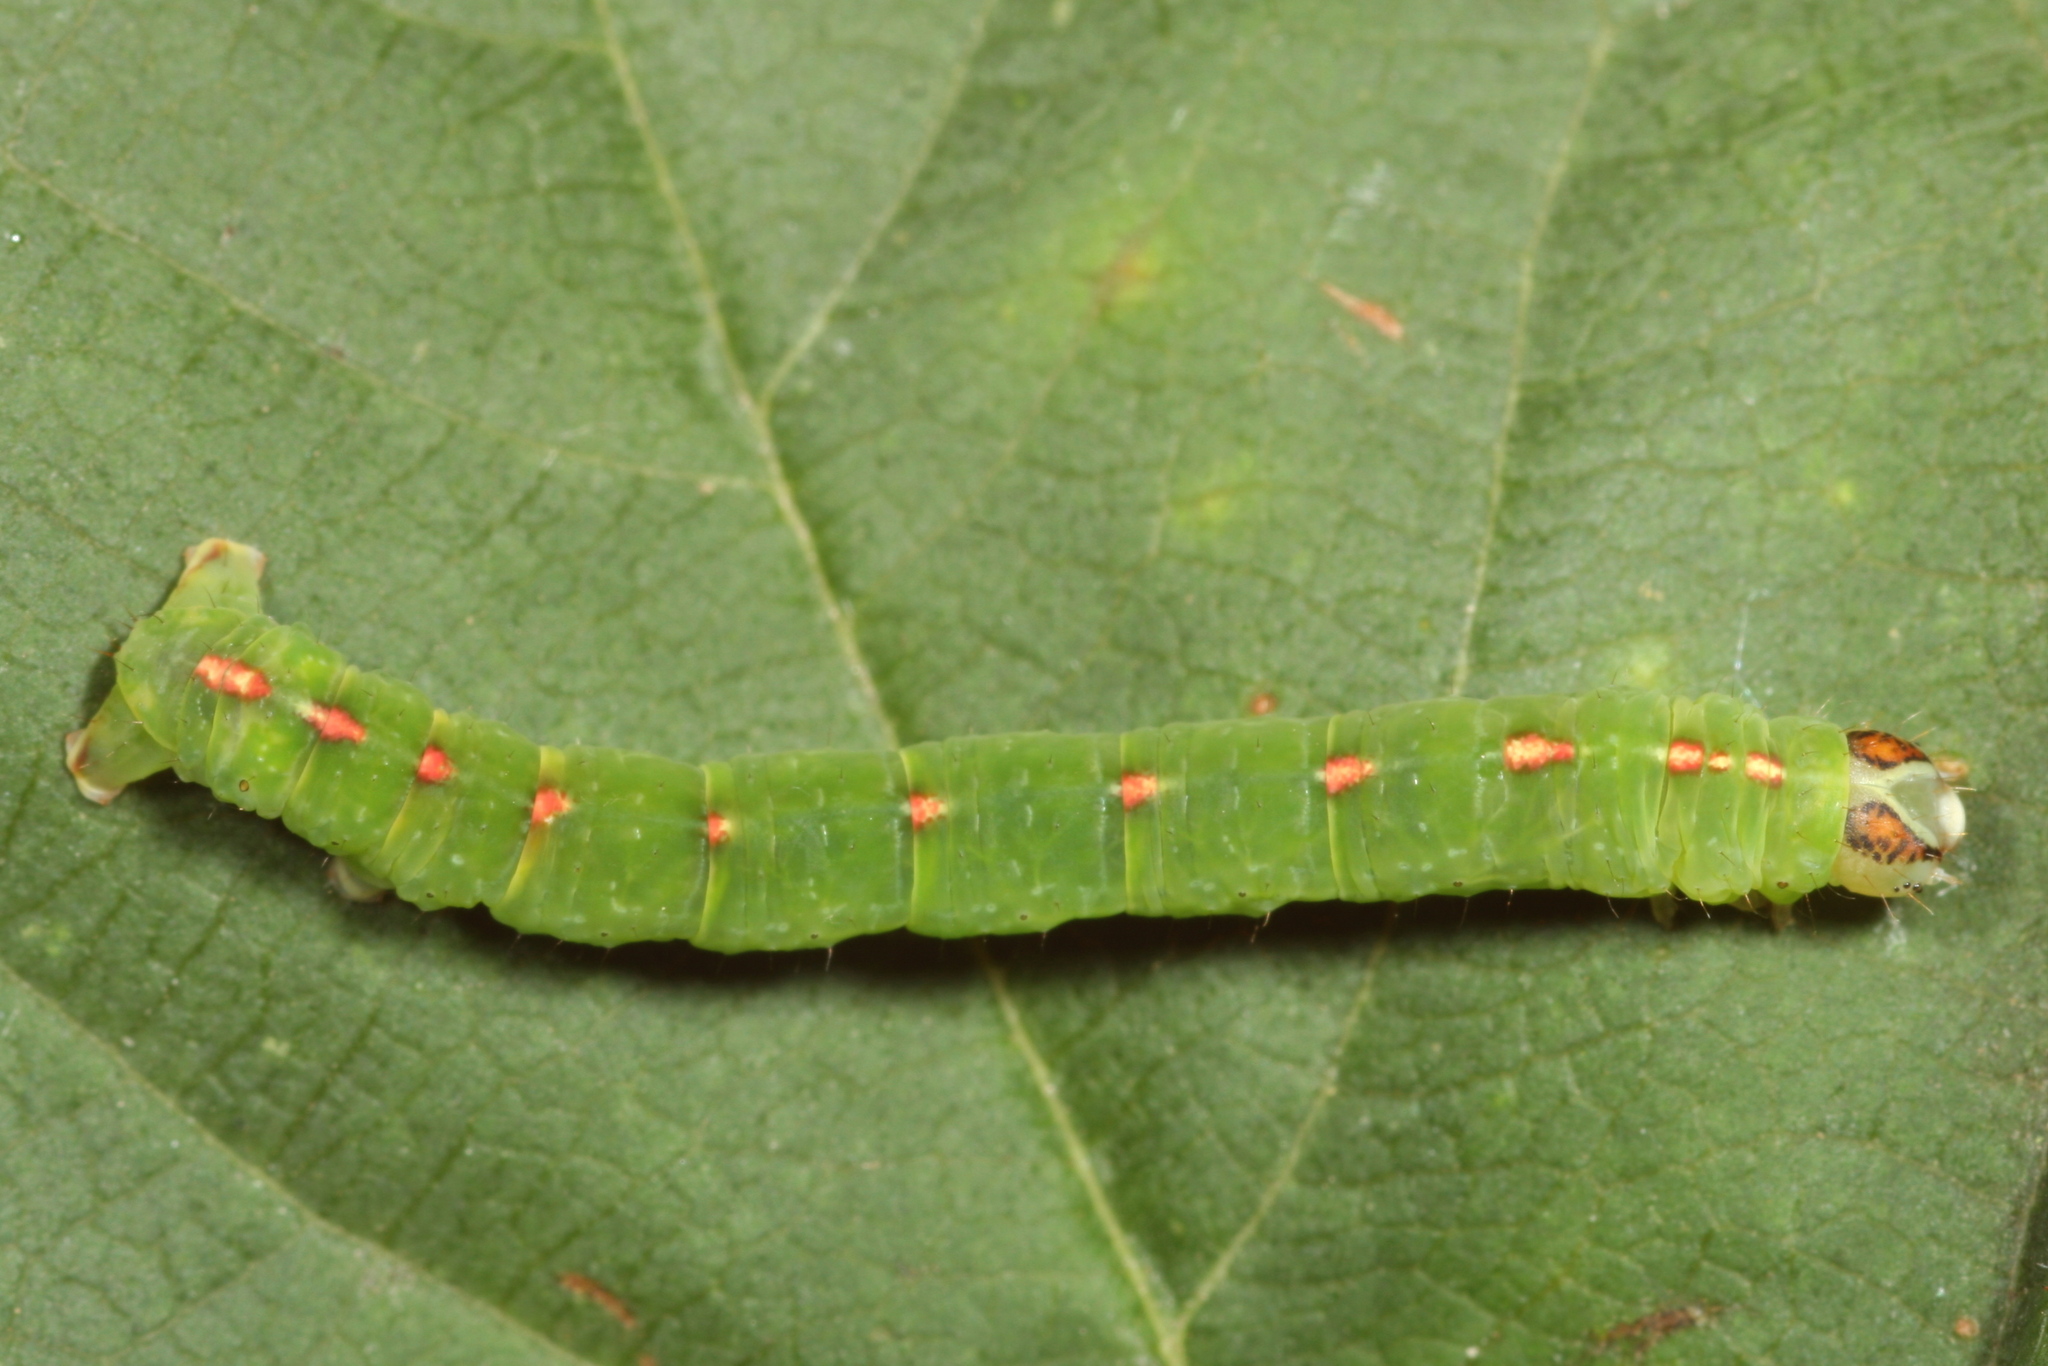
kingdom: Animalia
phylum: Arthropoda
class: Insecta
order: Lepidoptera
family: Geometridae
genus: Lomographa
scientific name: Lomographa temerata
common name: Clouded silver
